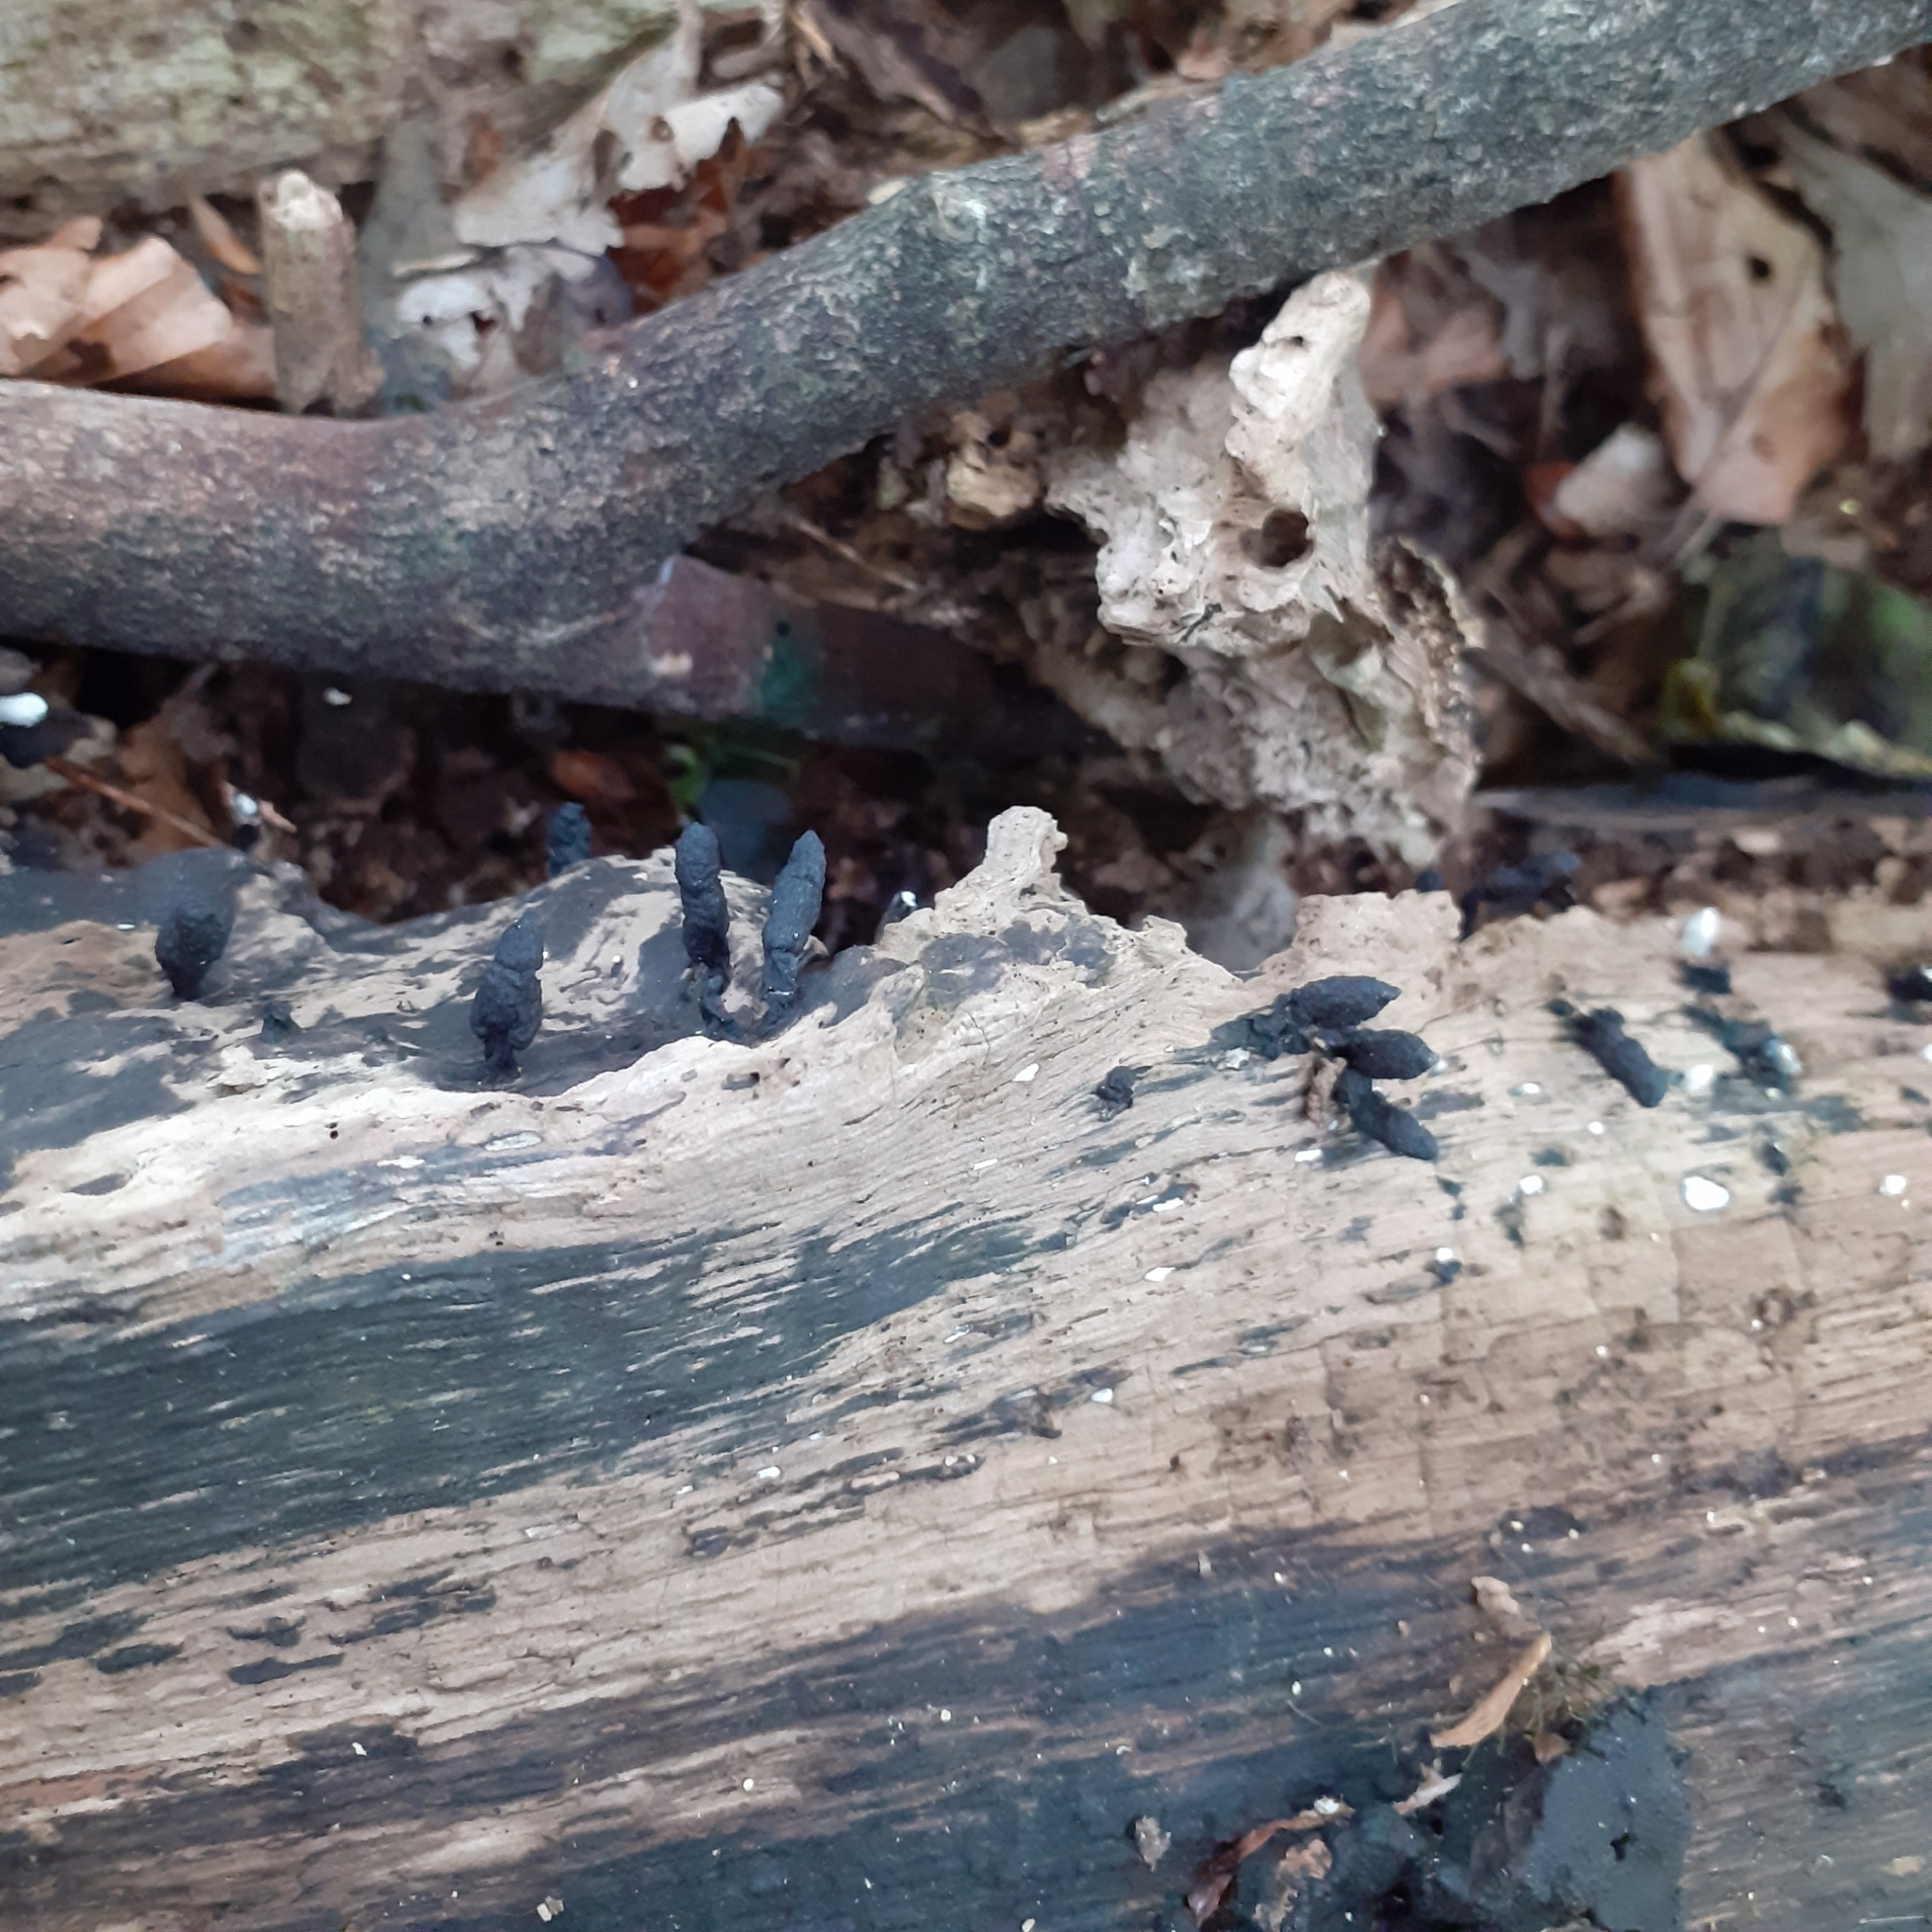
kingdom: Fungi
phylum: Ascomycota
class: Sordariomycetes
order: Xylariales
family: Xylariaceae
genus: Xylaria
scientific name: Xylaria longipes
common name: Dead moll's fingers
